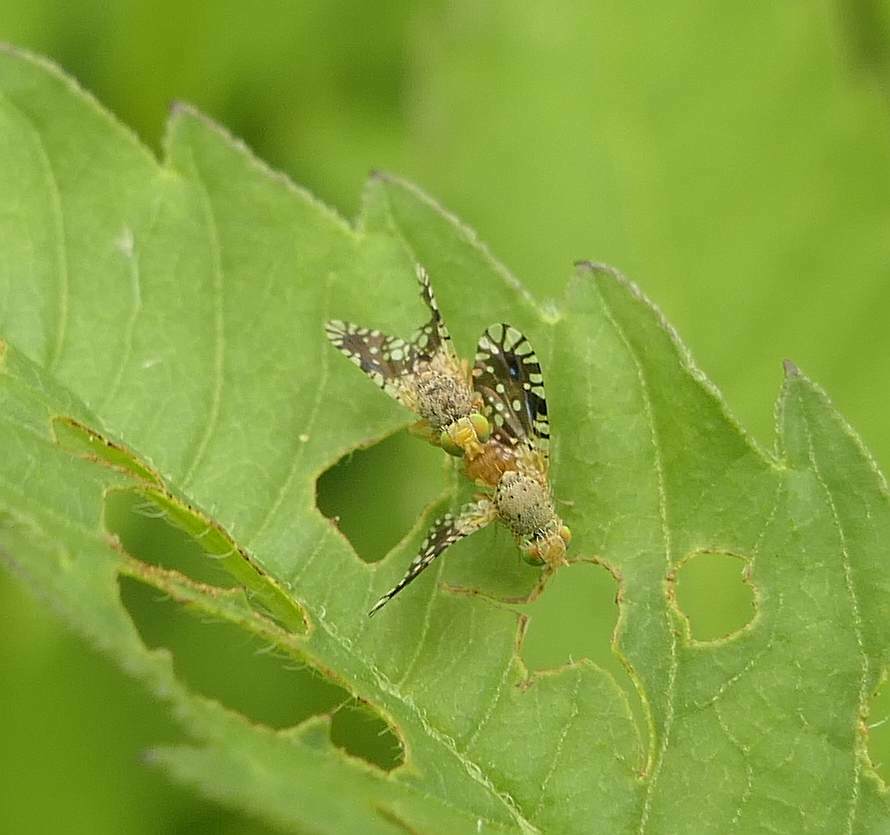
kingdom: Animalia
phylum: Arthropoda
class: Insecta
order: Diptera
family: Tephritidae
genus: Euaresta
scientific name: Euaresta bella
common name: Common ragweed fruit fly
